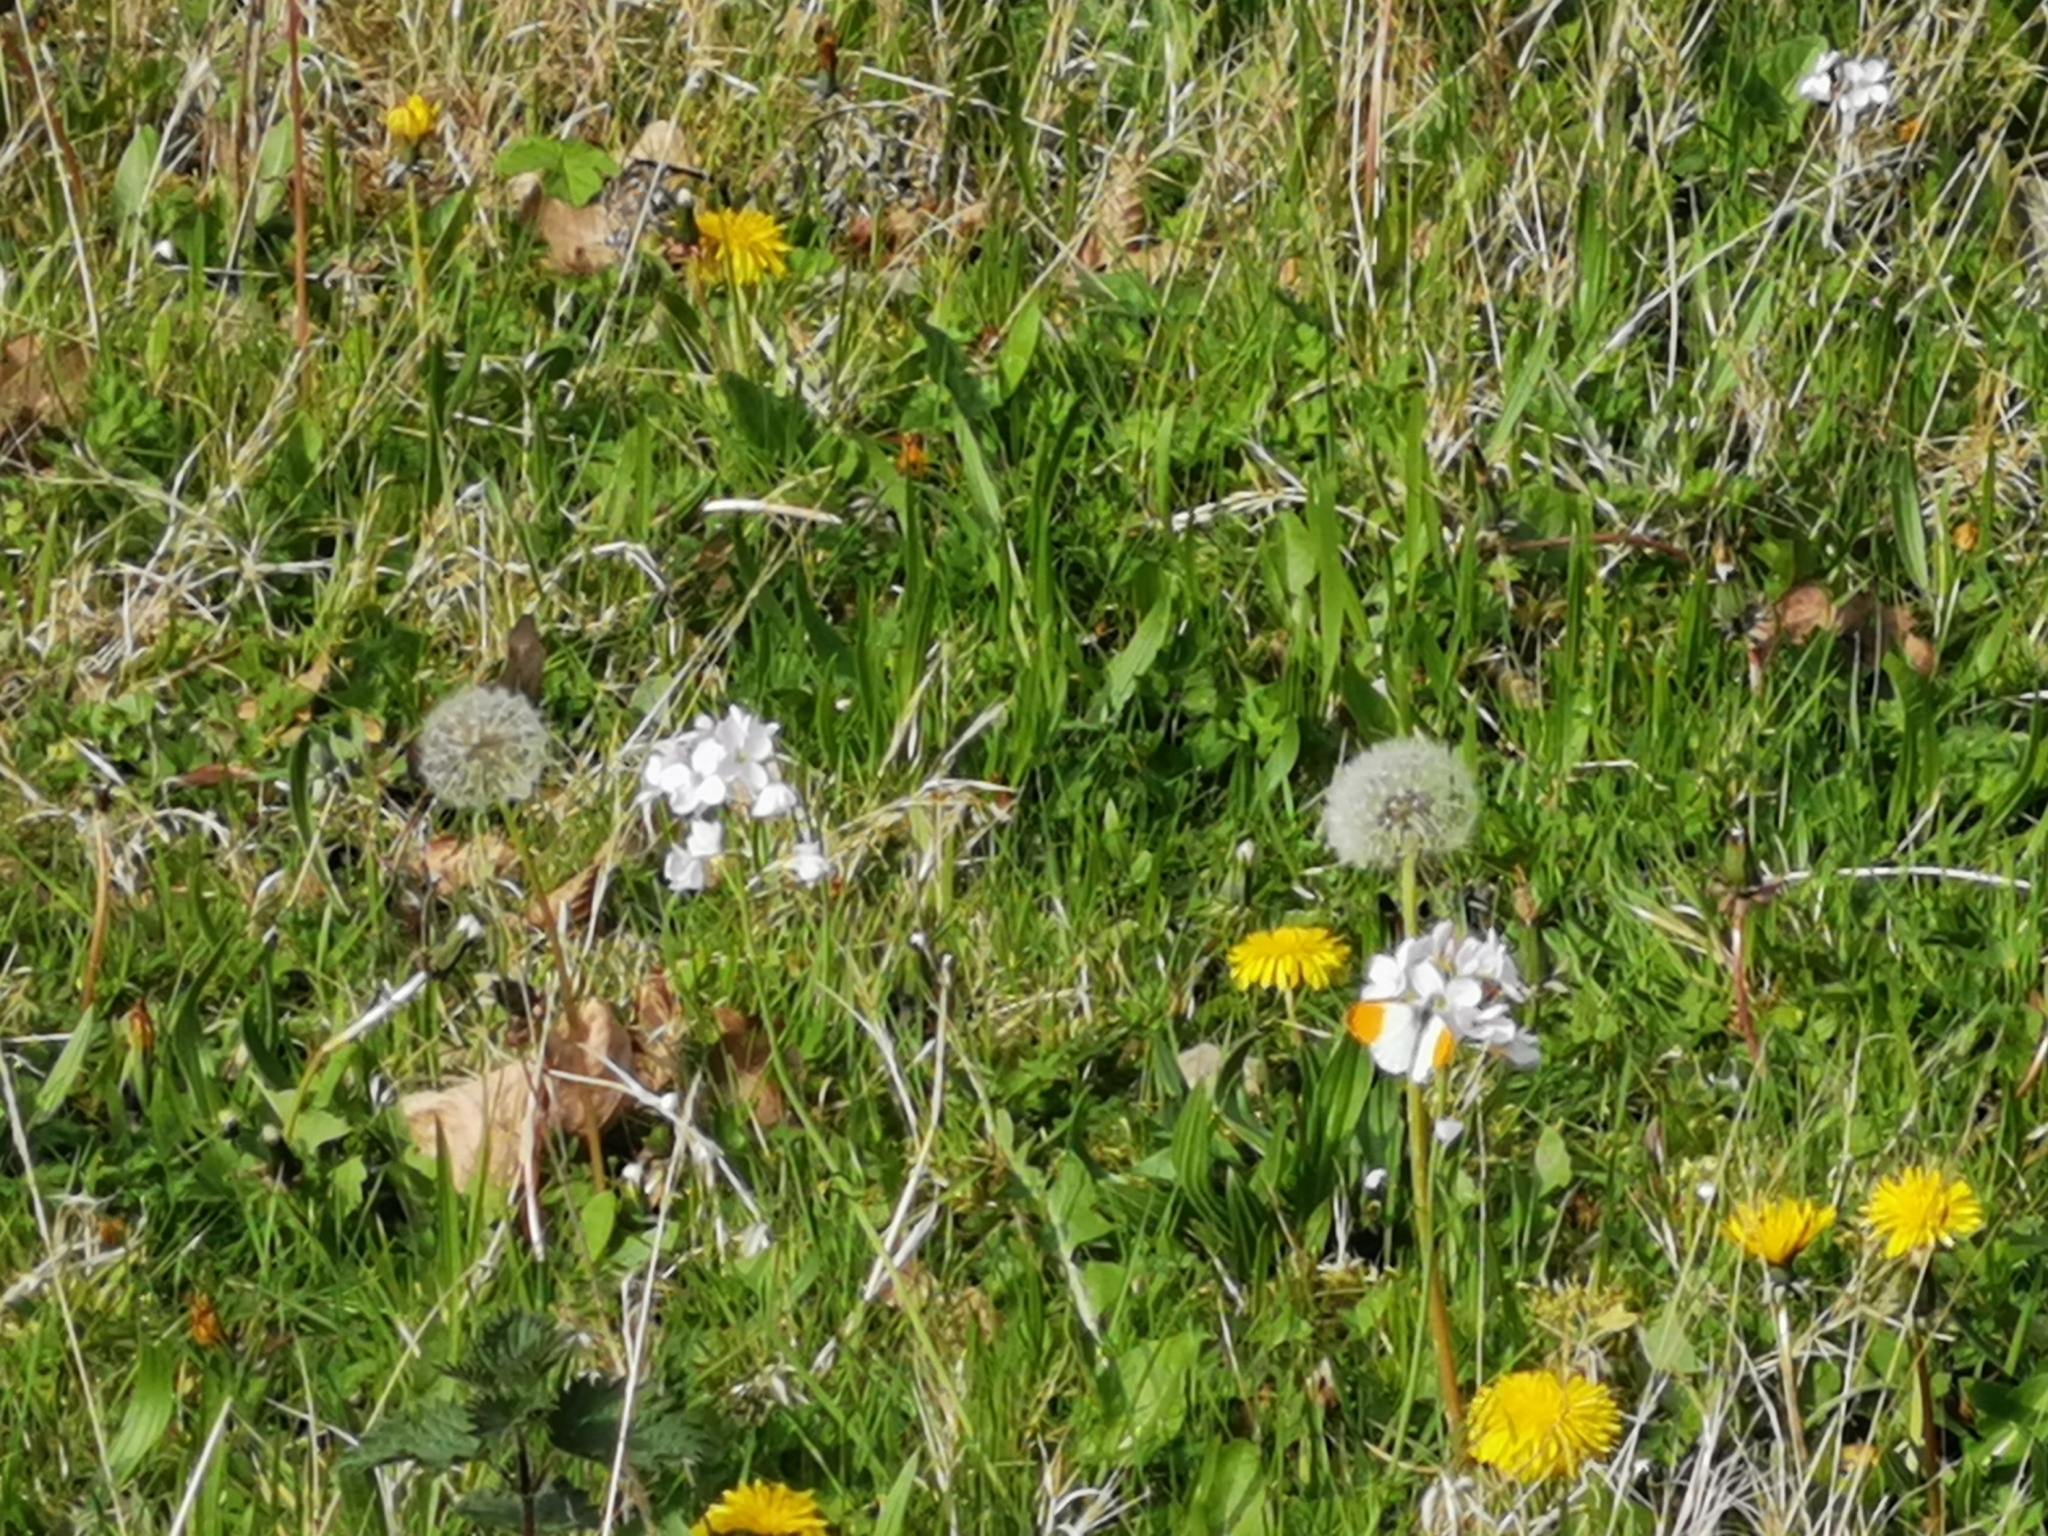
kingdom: Animalia
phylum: Arthropoda
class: Insecta
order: Lepidoptera
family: Pieridae
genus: Anthocharis
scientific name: Anthocharis cardamines
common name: Orange-tip
